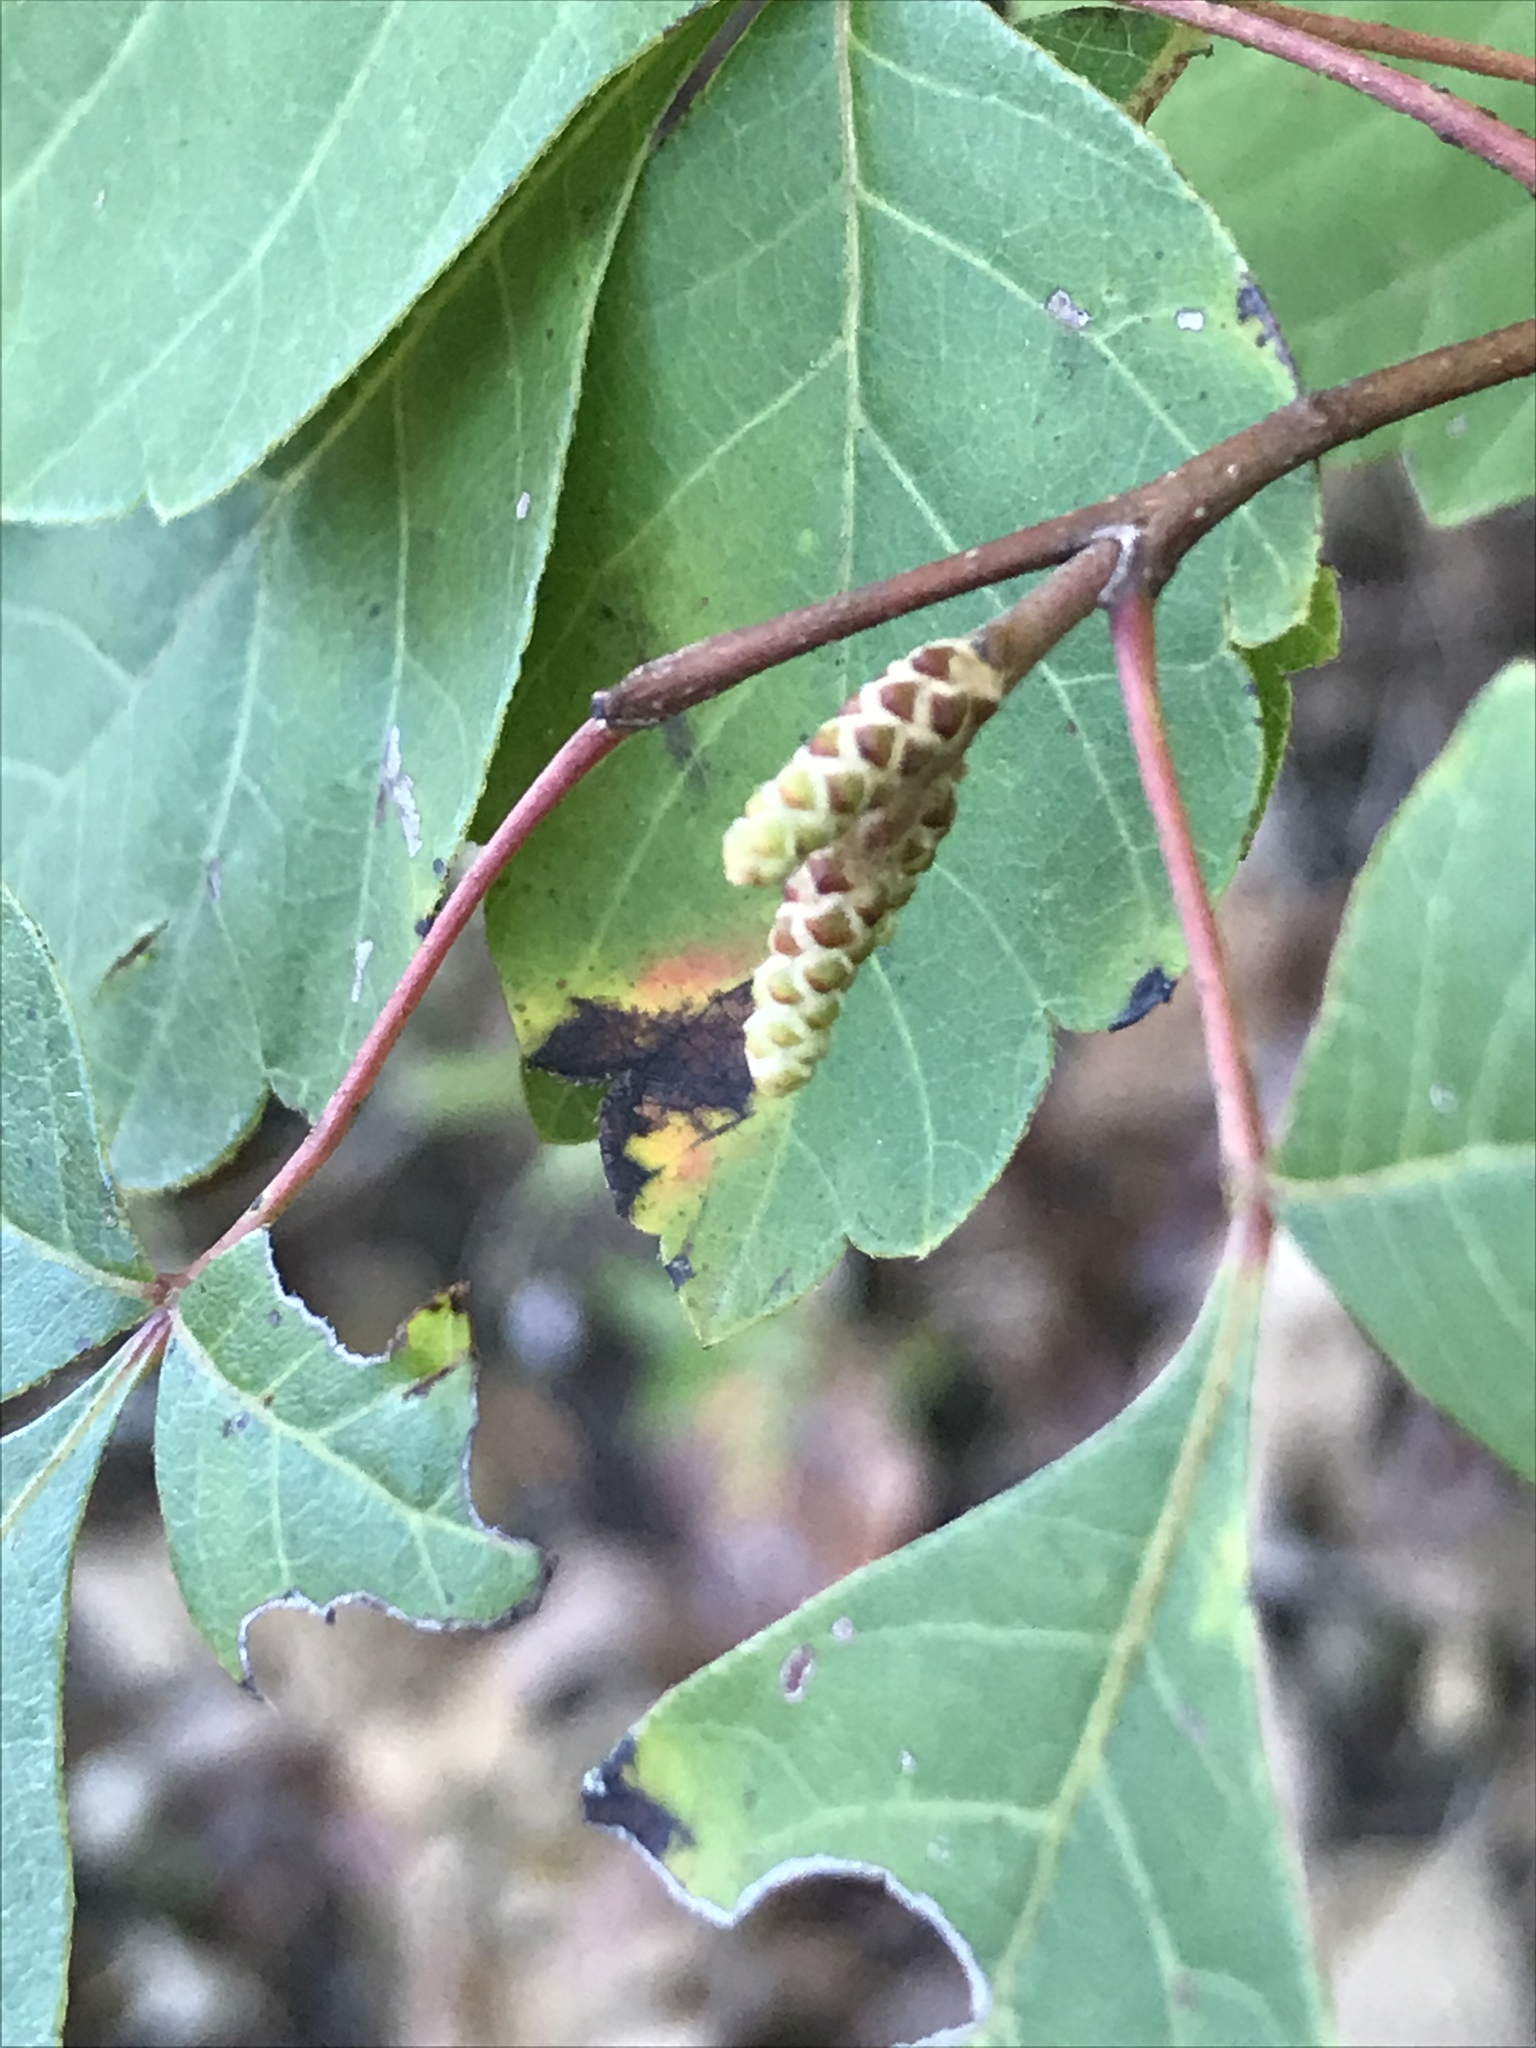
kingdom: Plantae
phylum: Tracheophyta
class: Magnoliopsida
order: Sapindales
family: Anacardiaceae
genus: Rhus
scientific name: Rhus aromatica
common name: Aromatic sumac
